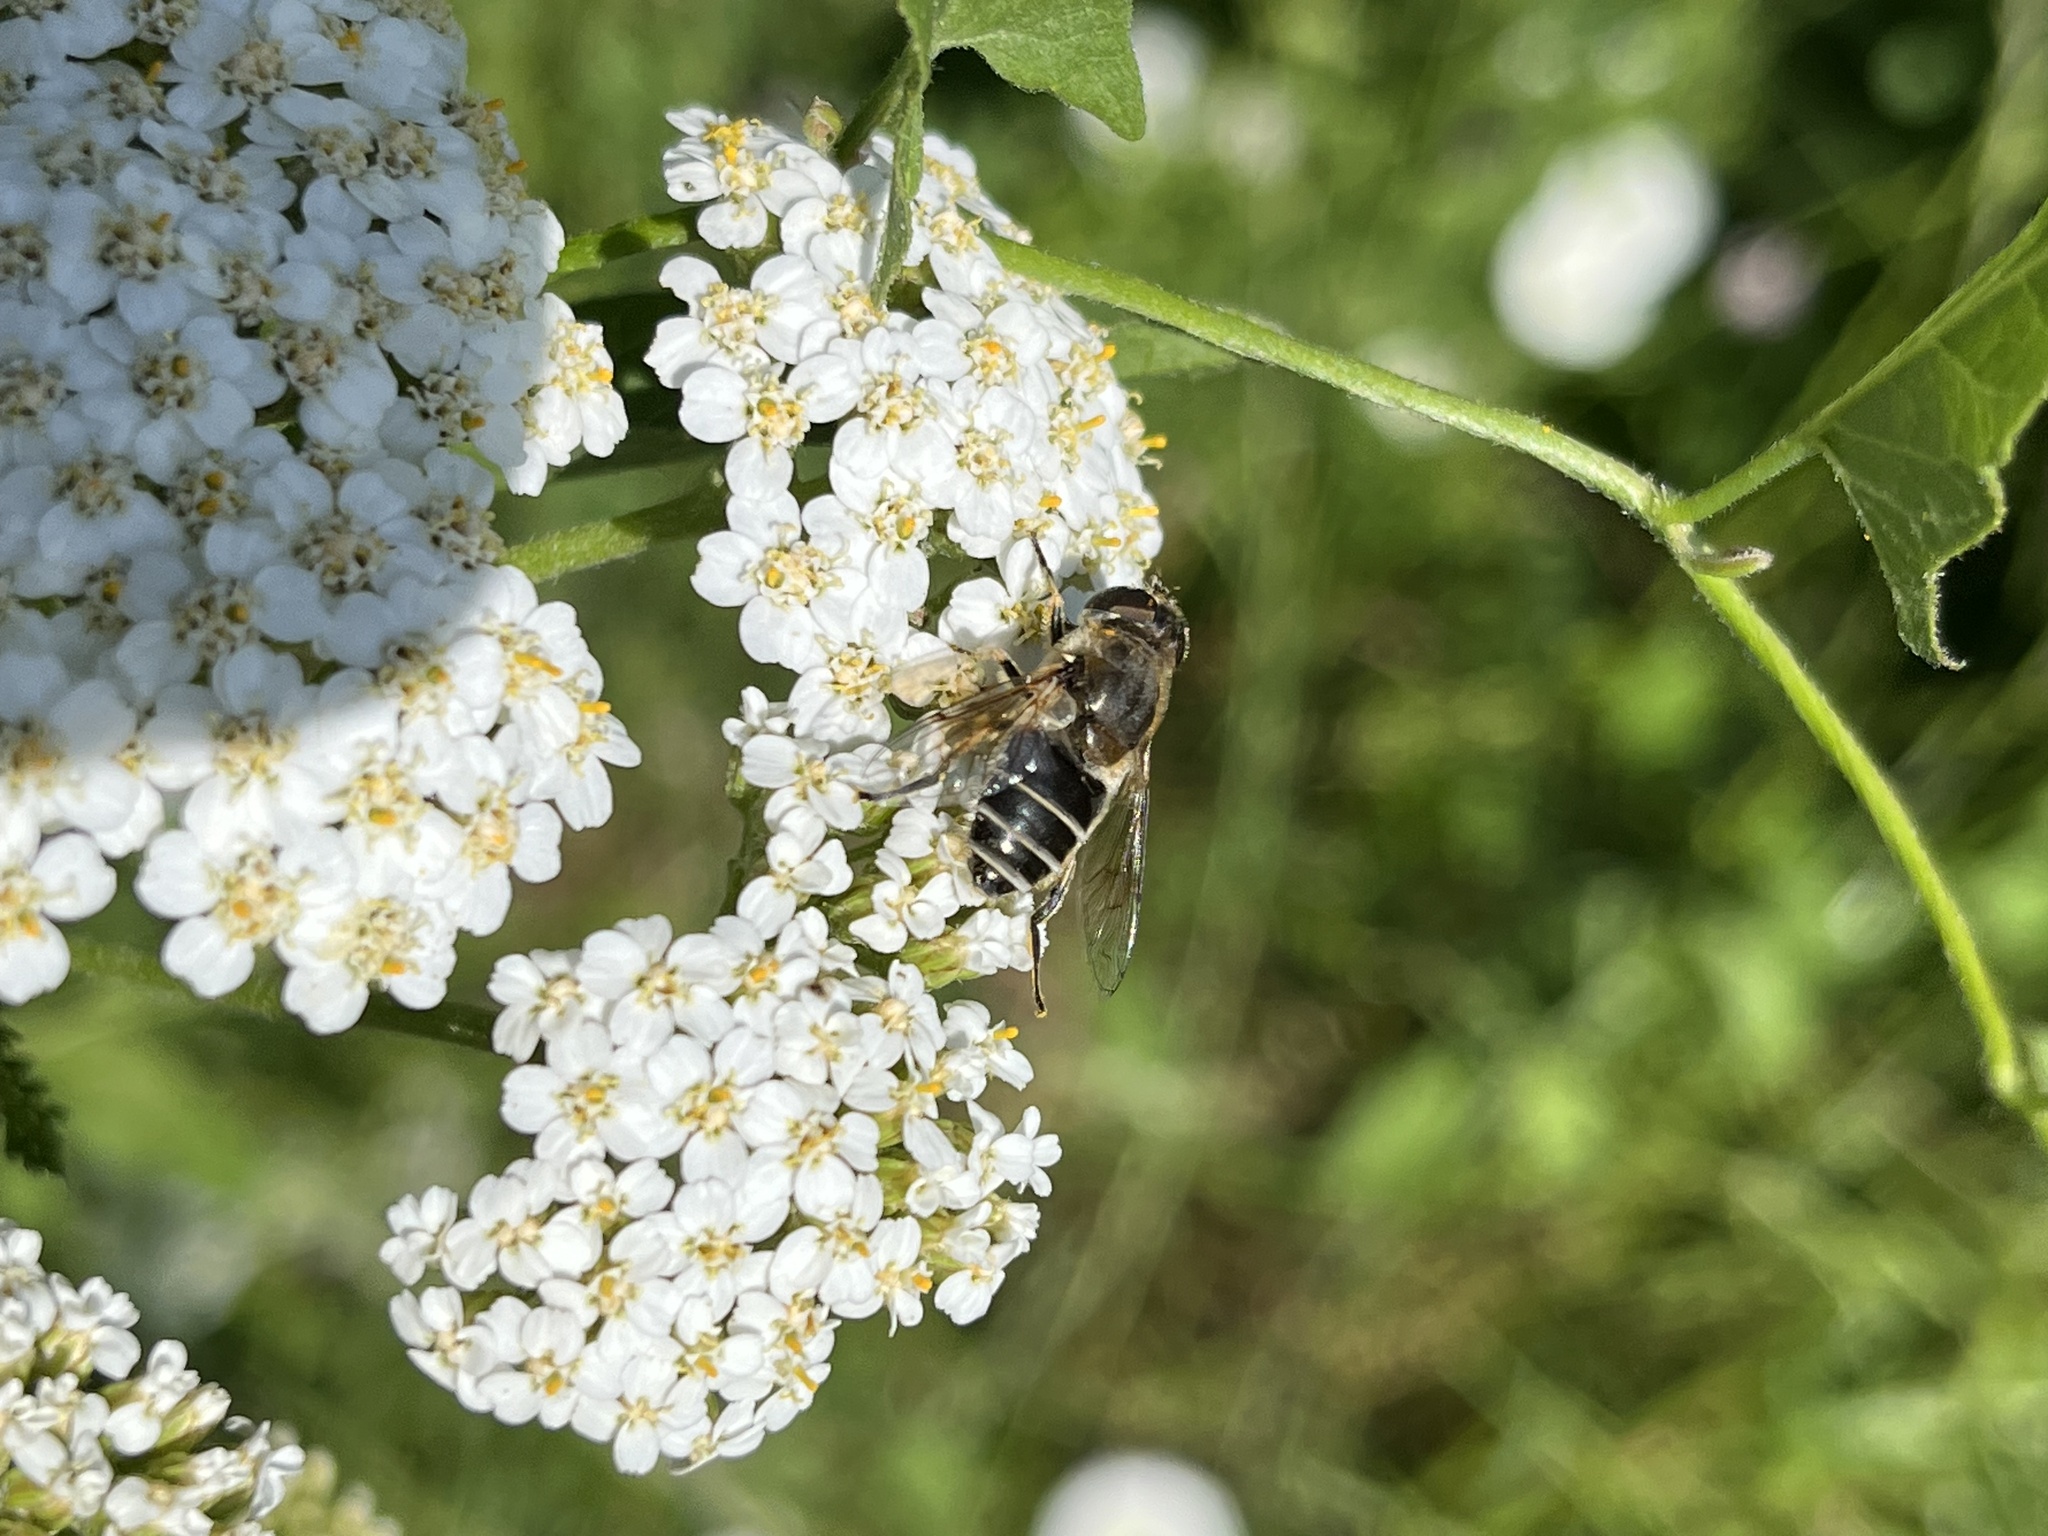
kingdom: Animalia
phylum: Arthropoda
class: Insecta
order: Diptera
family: Syrphidae
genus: Eristalis
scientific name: Eristalis arbustorum
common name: Hover fly
